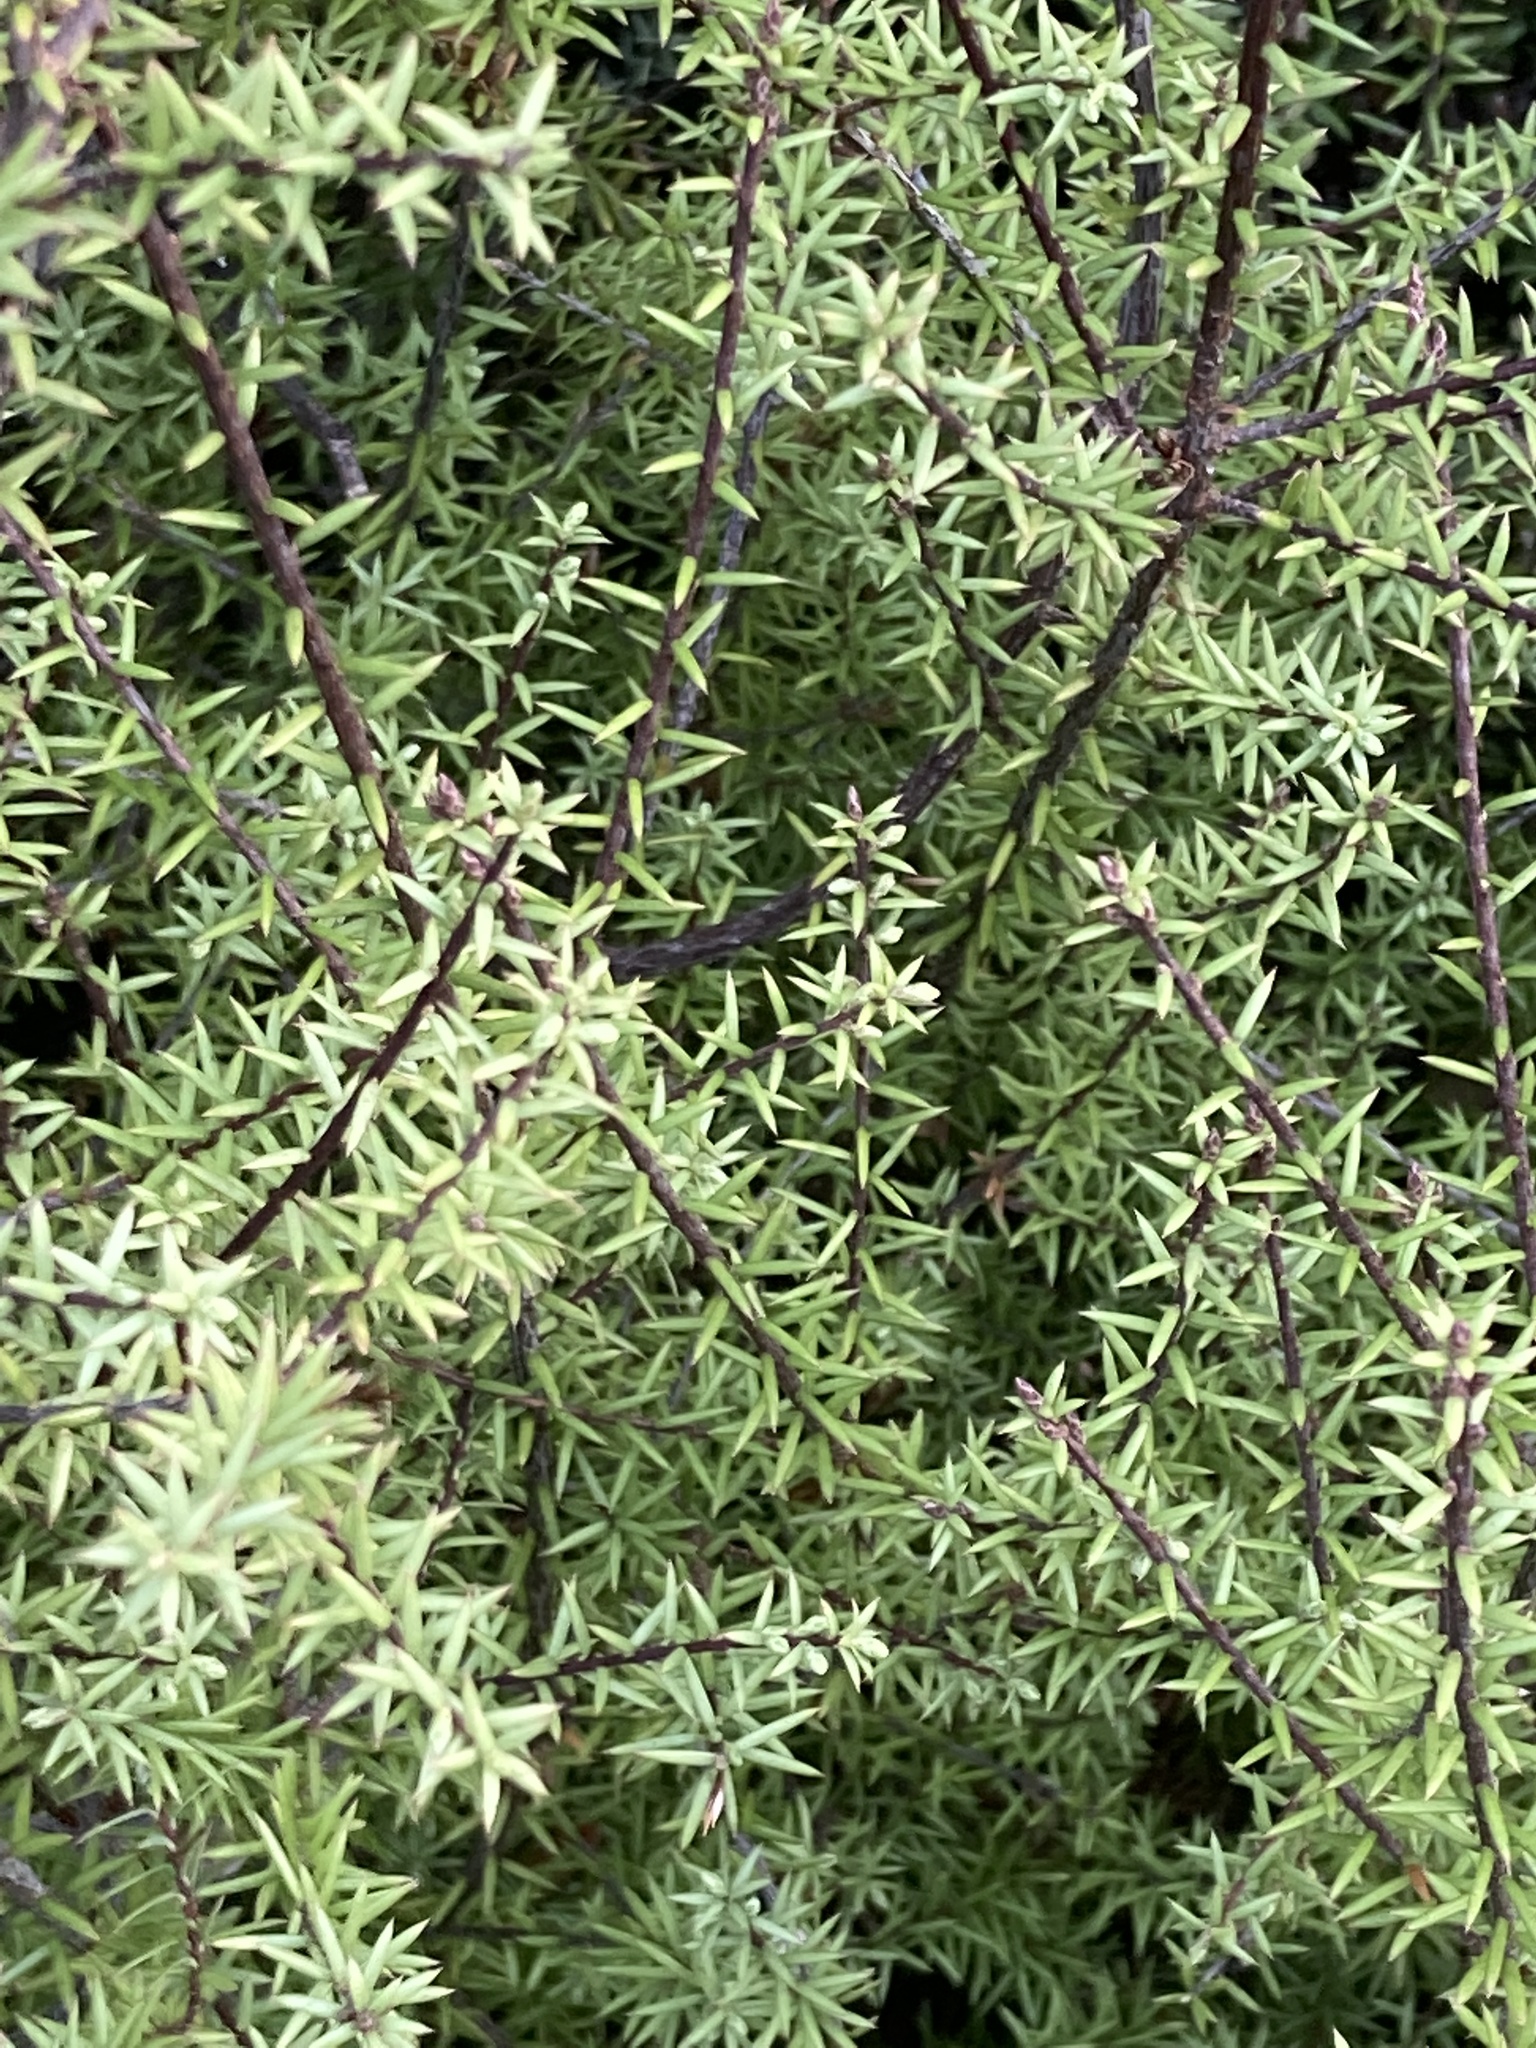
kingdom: Plantae
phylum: Tracheophyta
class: Magnoliopsida
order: Ericales
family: Ericaceae
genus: Leptecophylla
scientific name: Leptecophylla juniperina
